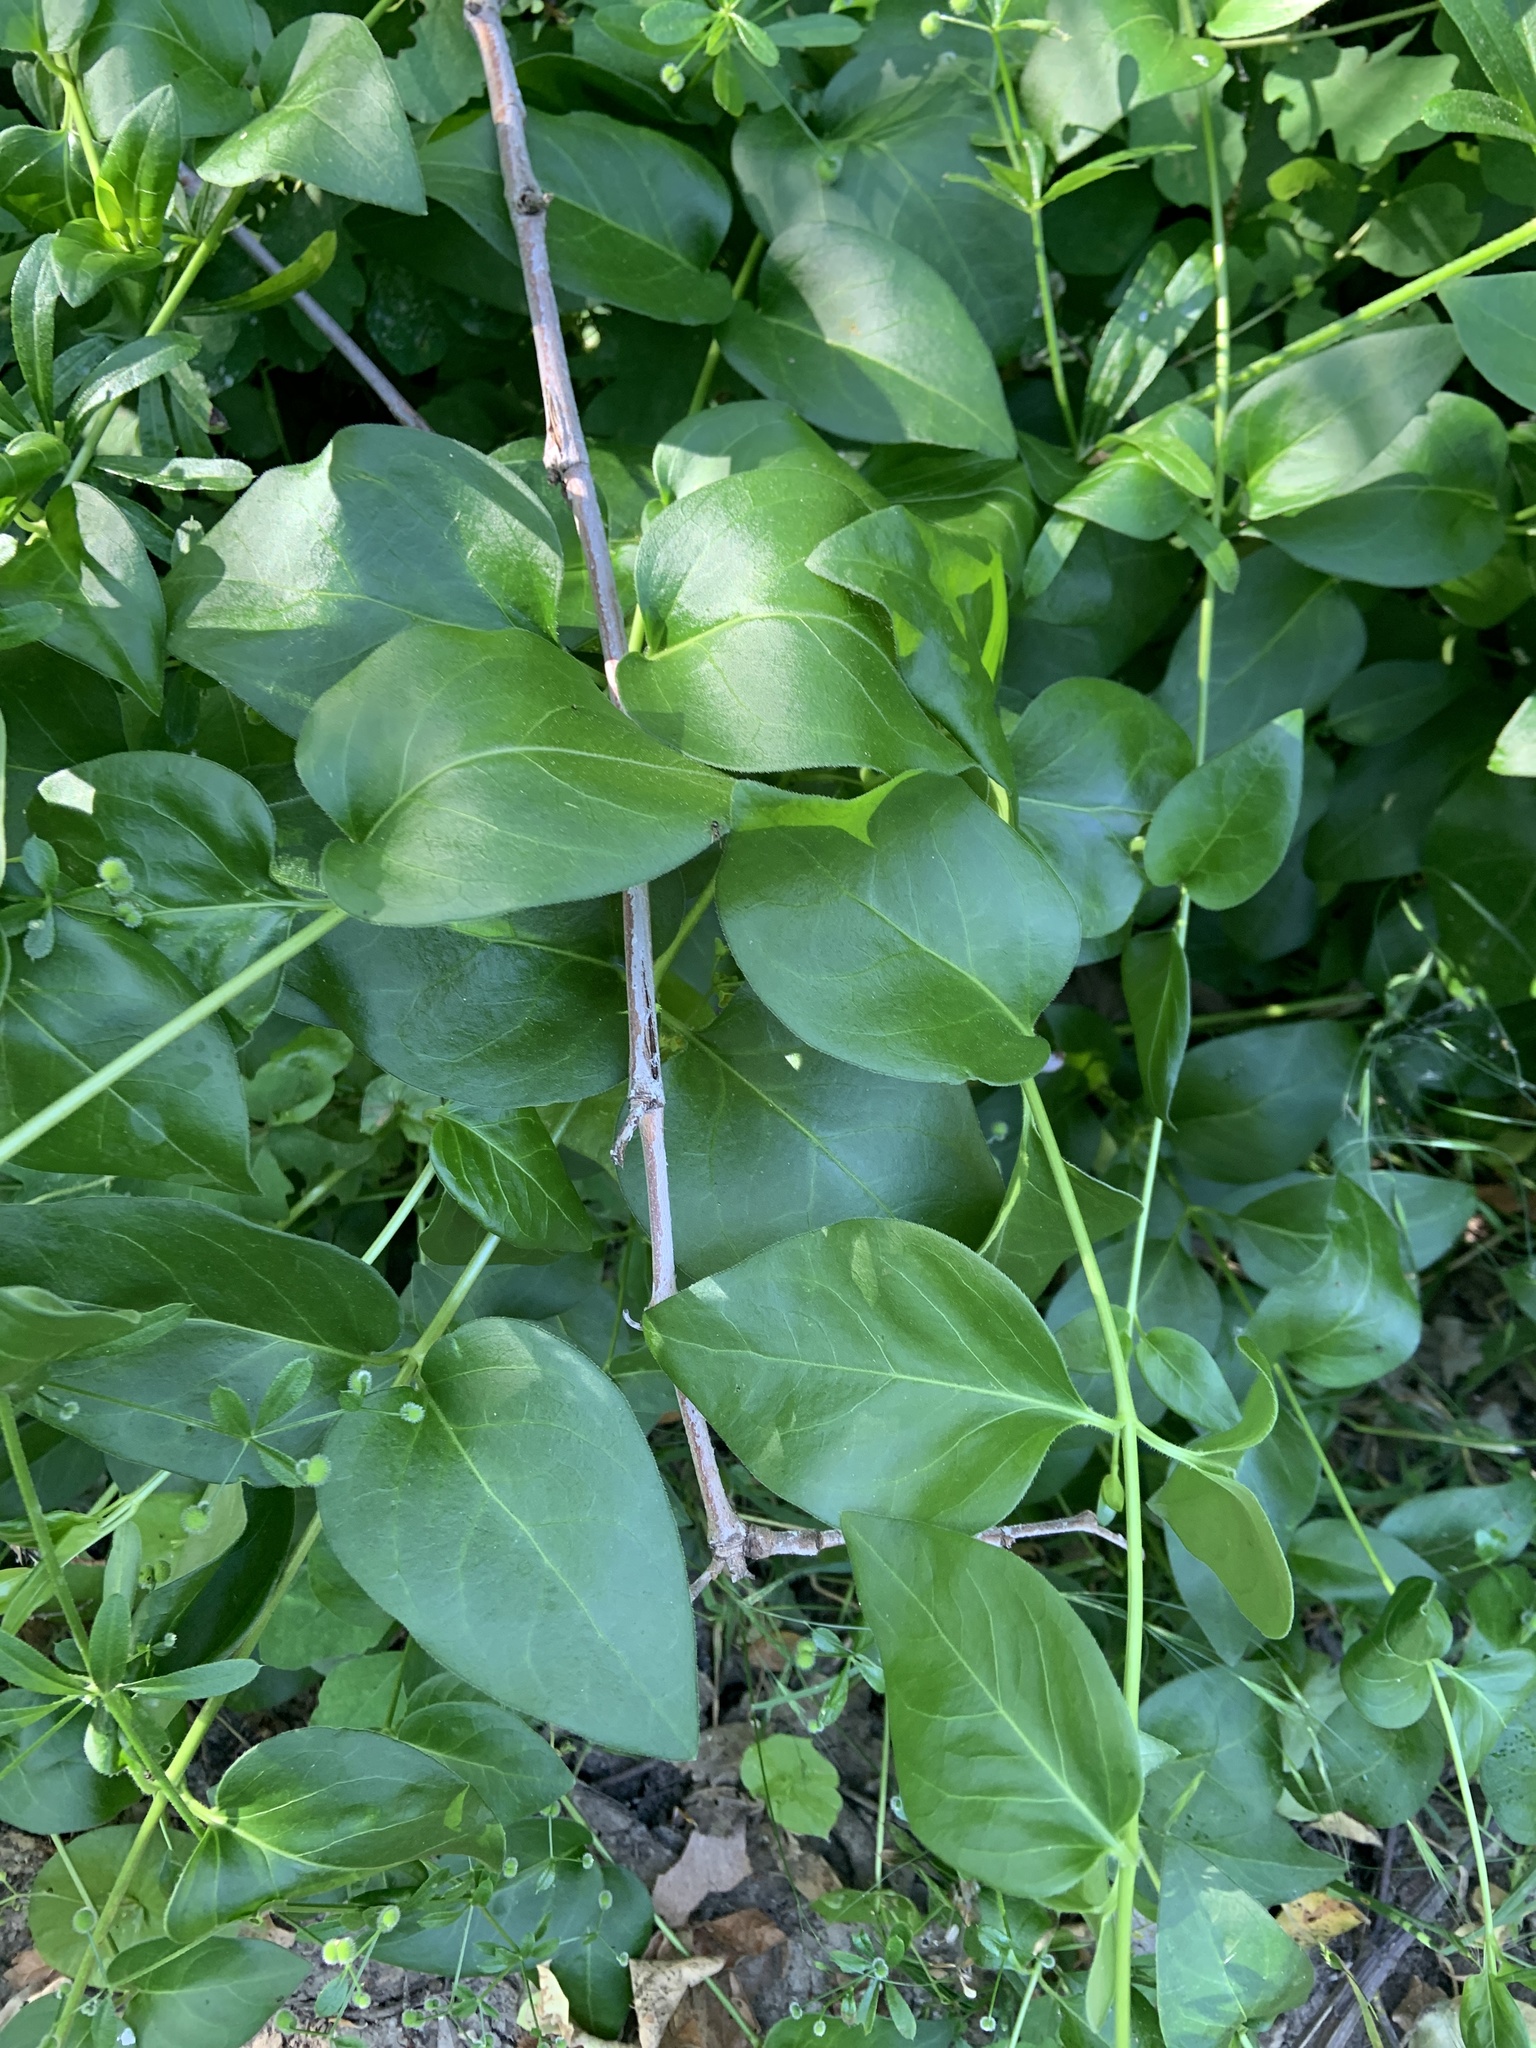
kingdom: Plantae
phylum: Tracheophyta
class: Magnoliopsida
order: Gentianales
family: Apocynaceae
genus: Vinca
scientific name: Vinca major
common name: Greater periwinkle
